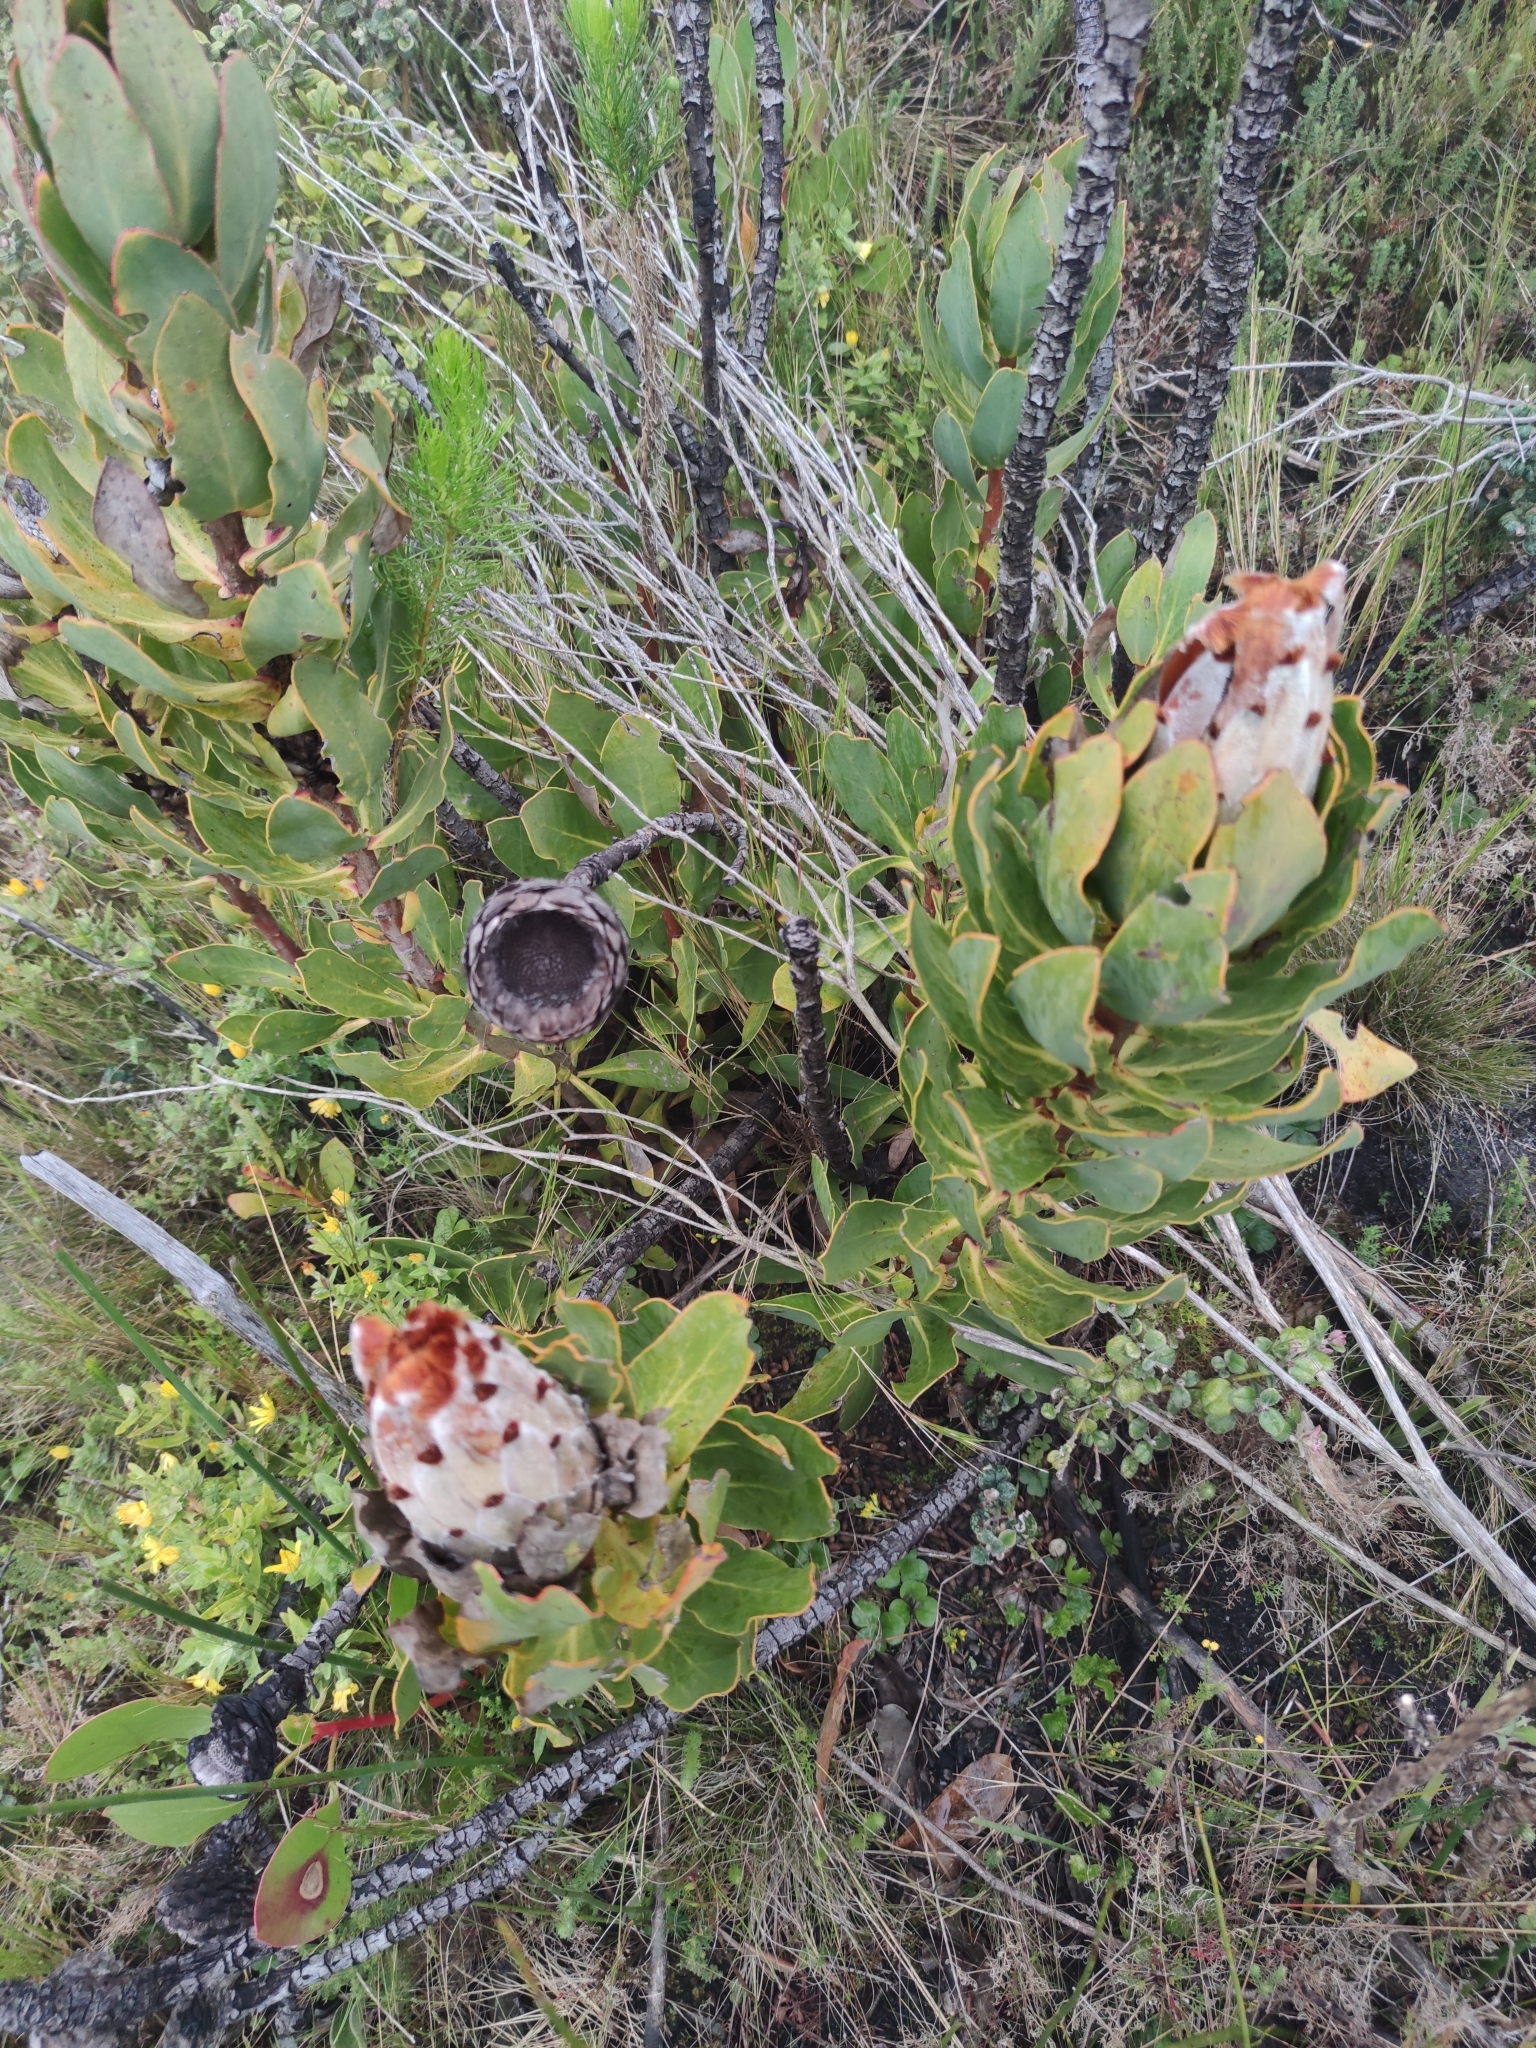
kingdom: Plantae
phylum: Tracheophyta
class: Magnoliopsida
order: Proteales
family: Proteaceae
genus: Protea
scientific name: Protea speciosa
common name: Brown-beard sugarbush
